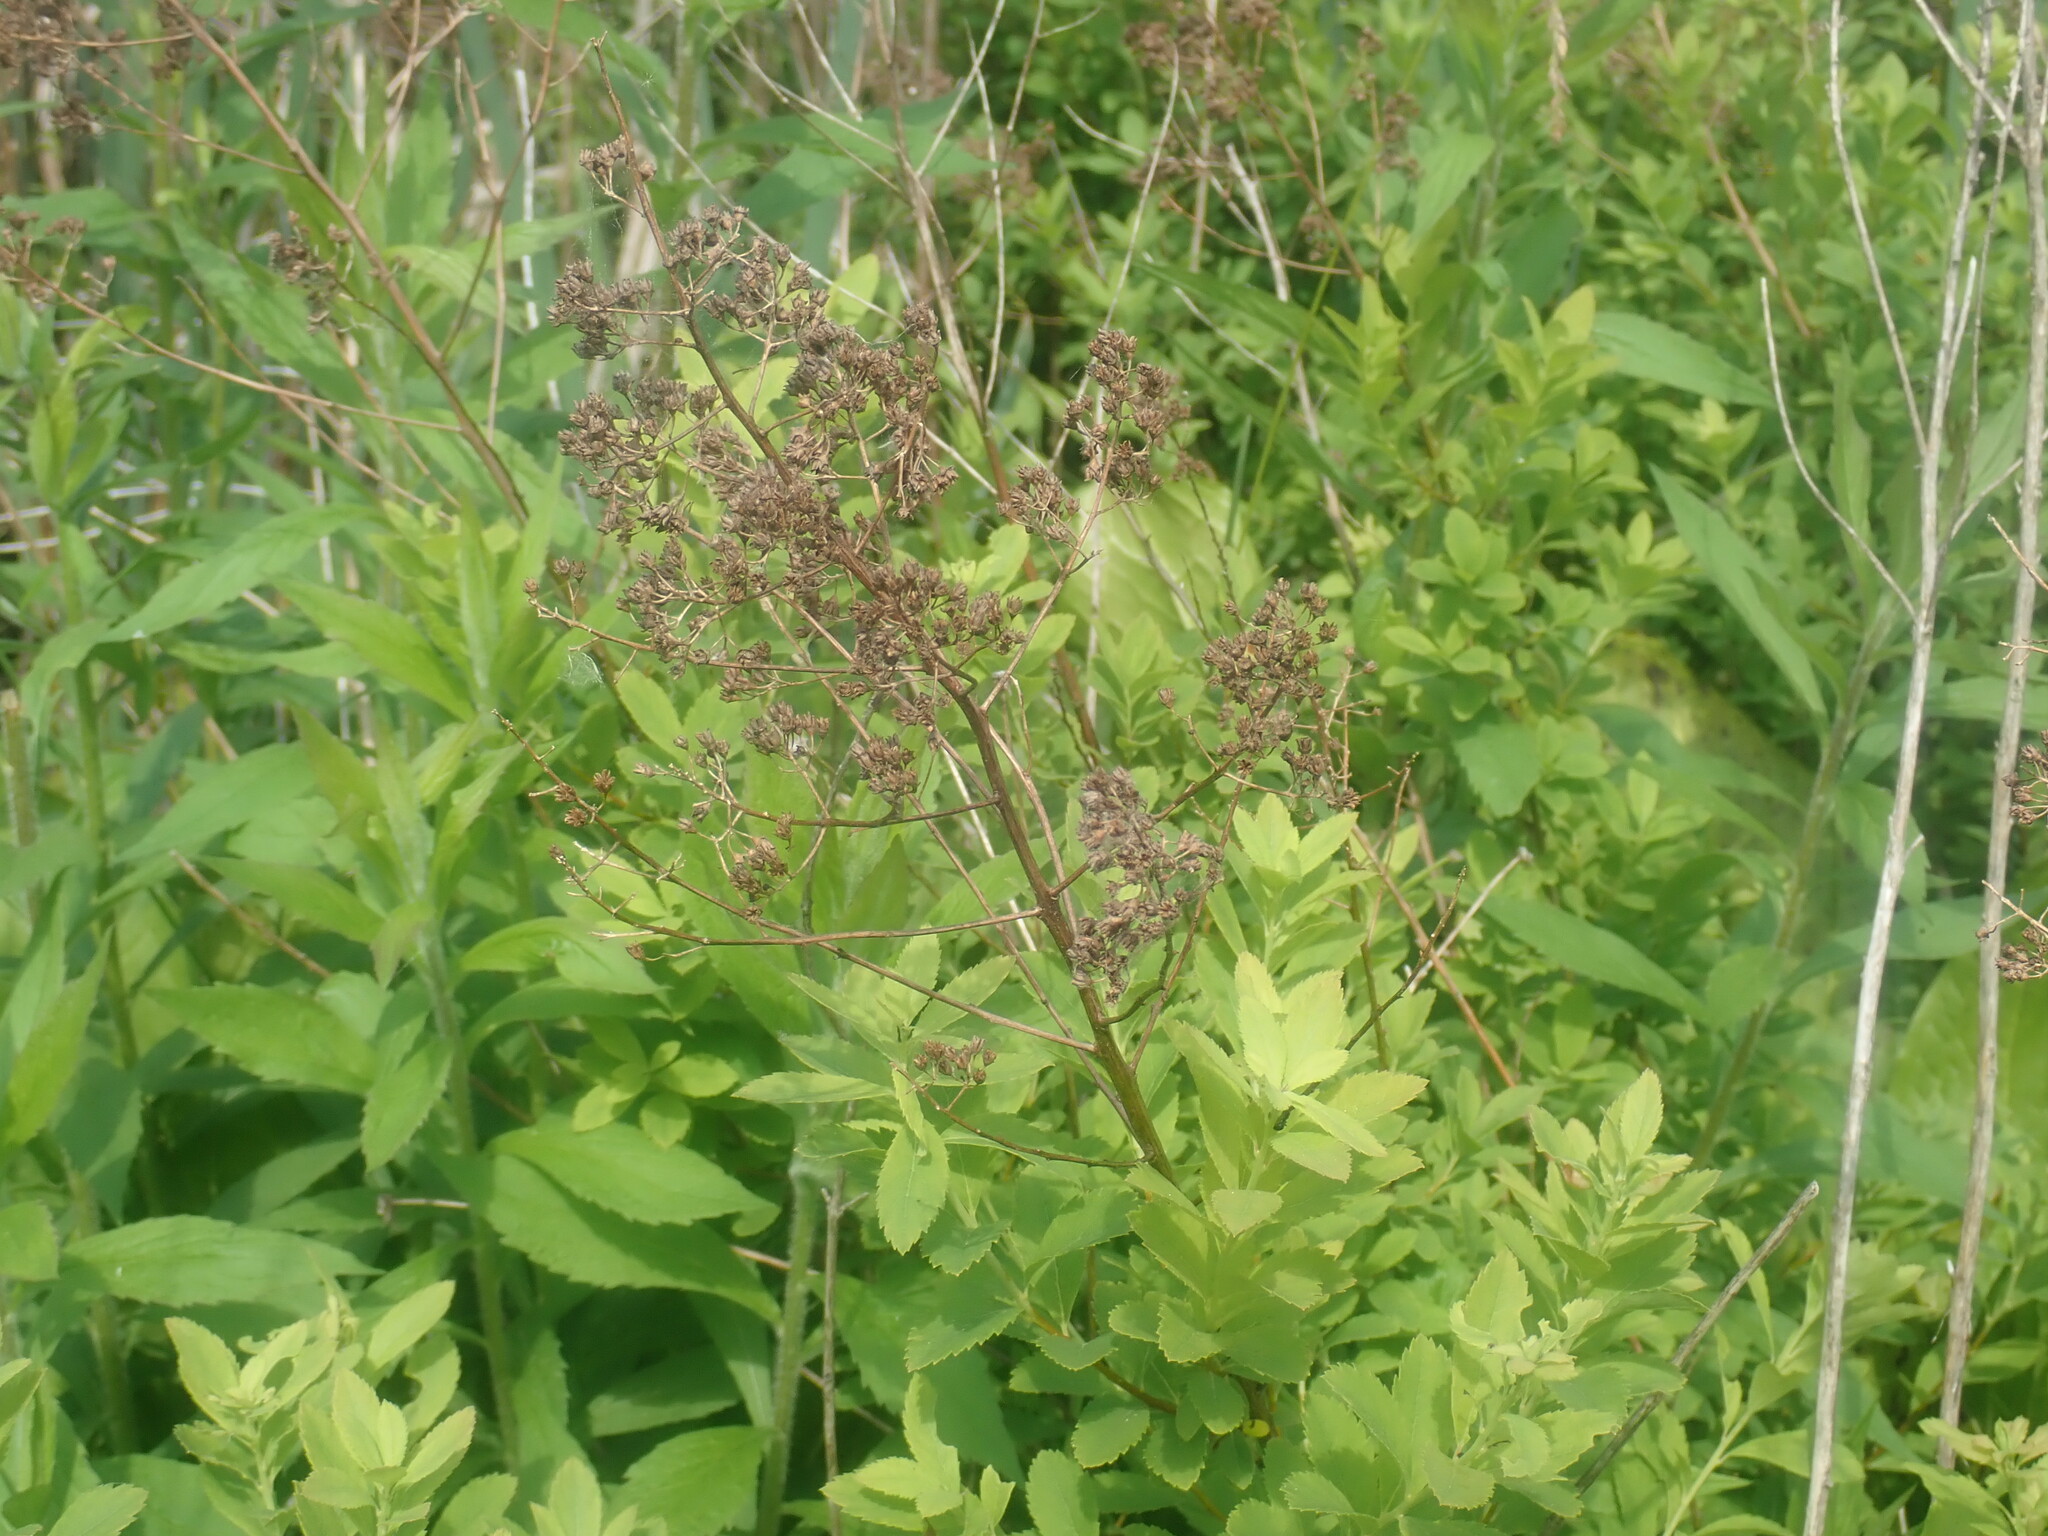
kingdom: Plantae
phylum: Tracheophyta
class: Magnoliopsida
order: Rosales
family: Rosaceae
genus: Spiraea
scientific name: Spiraea alba
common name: Pale bridewort
